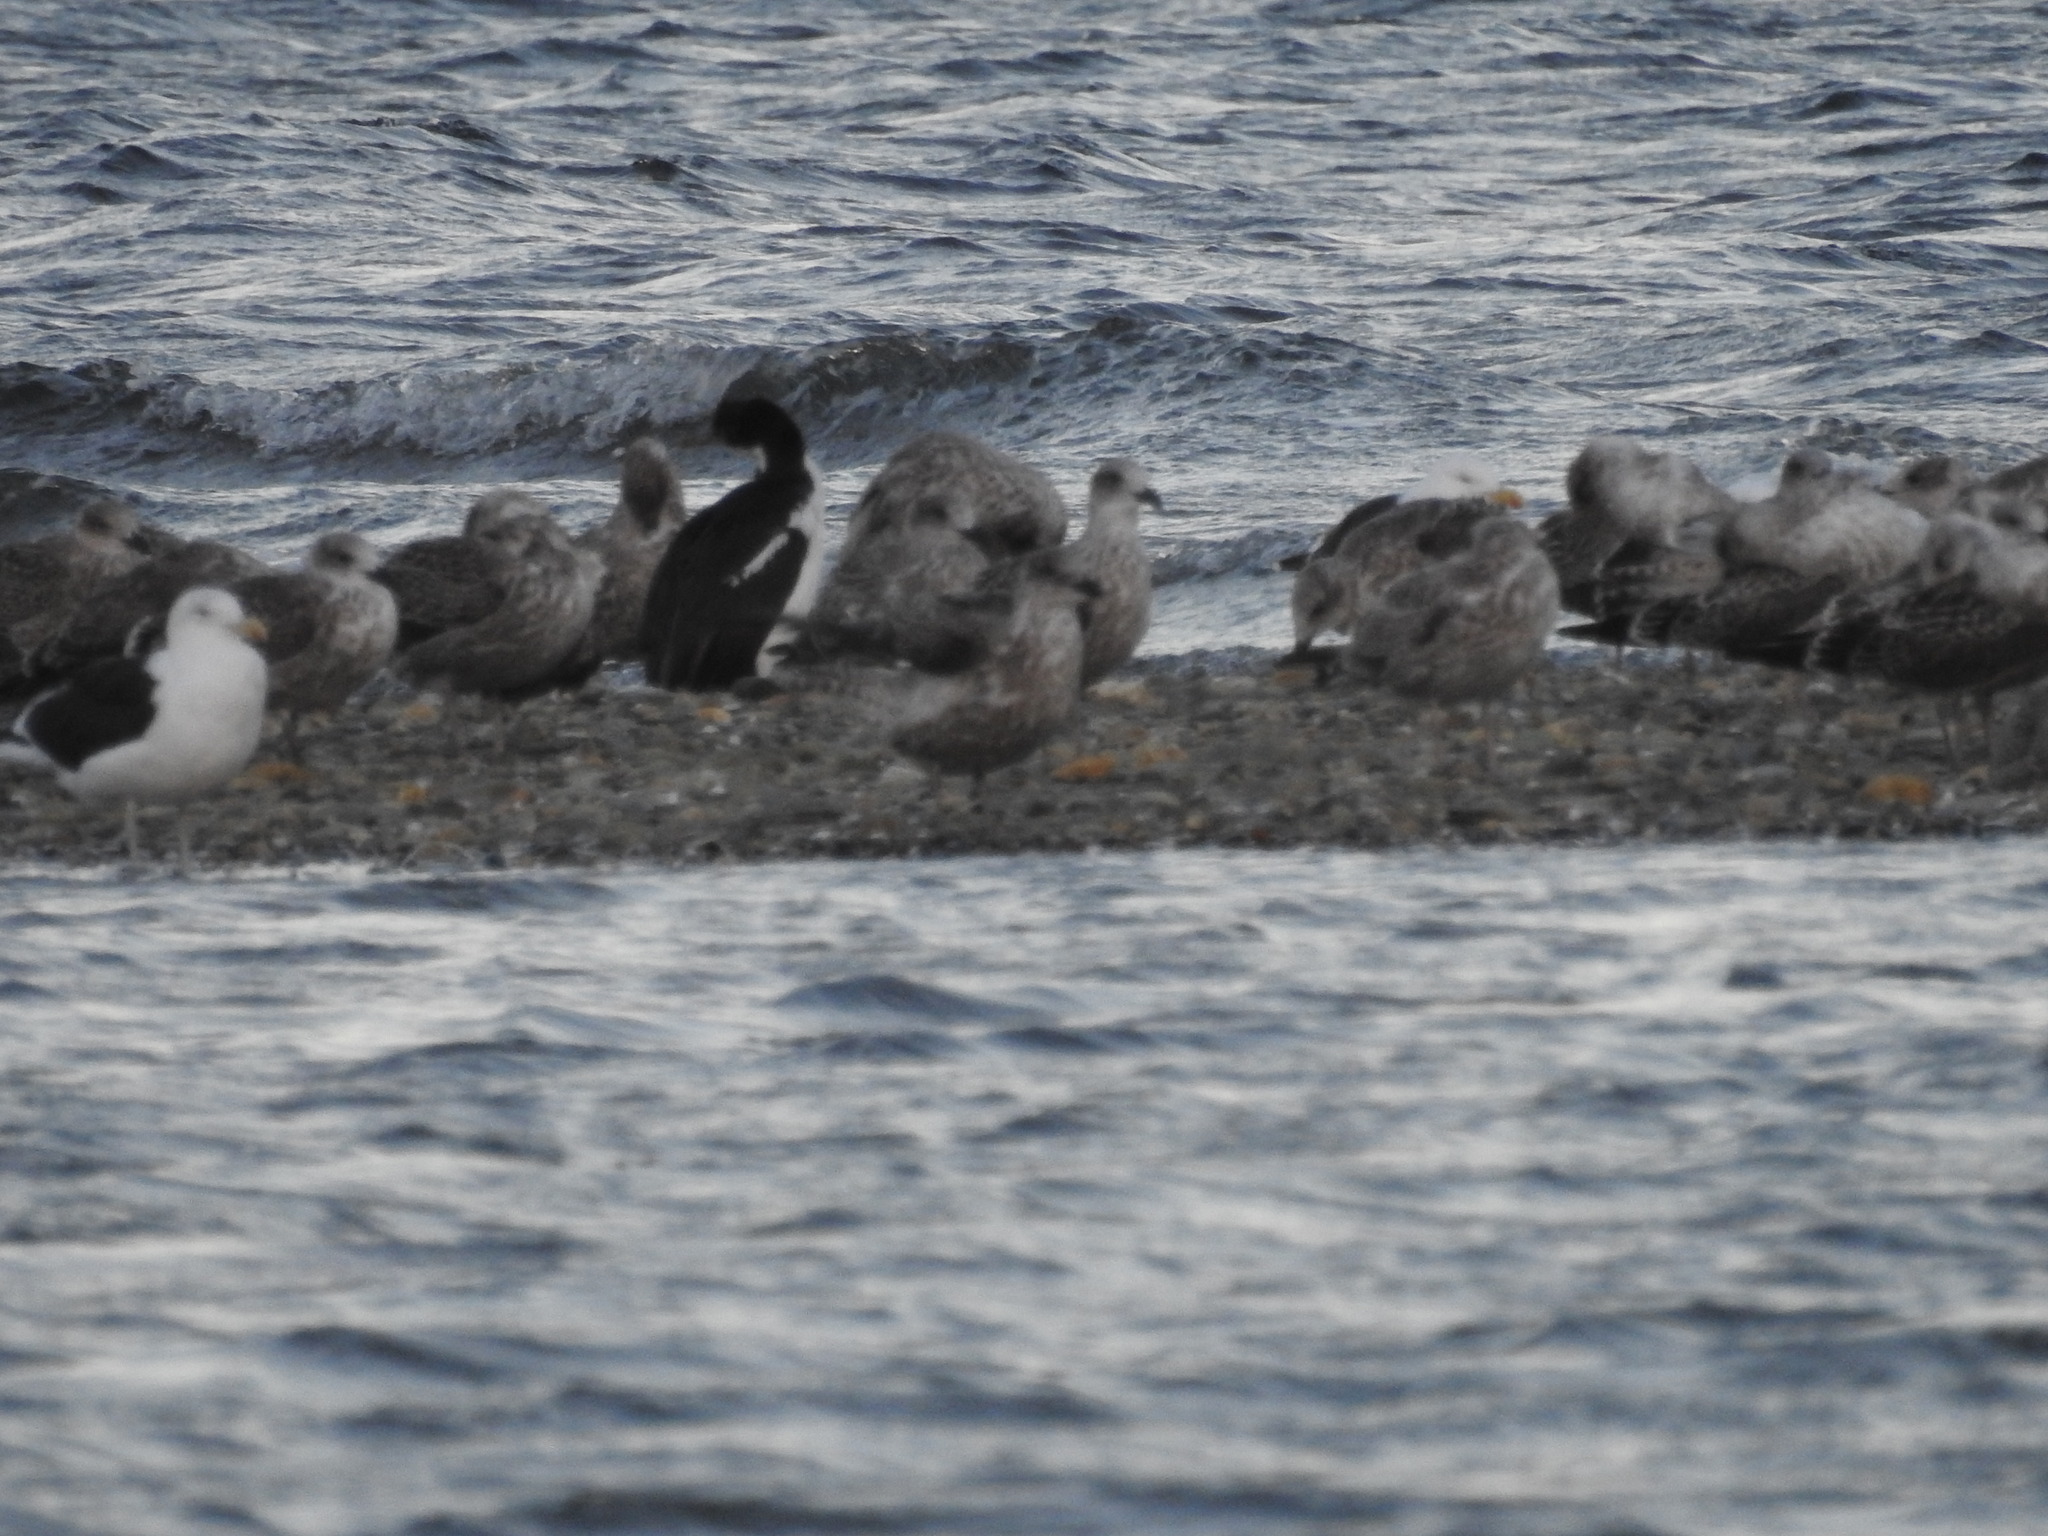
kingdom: Animalia
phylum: Chordata
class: Aves
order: Suliformes
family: Phalacrocoracidae
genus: Leucocarbo
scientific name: Leucocarbo atriceps
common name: Imperial shag
